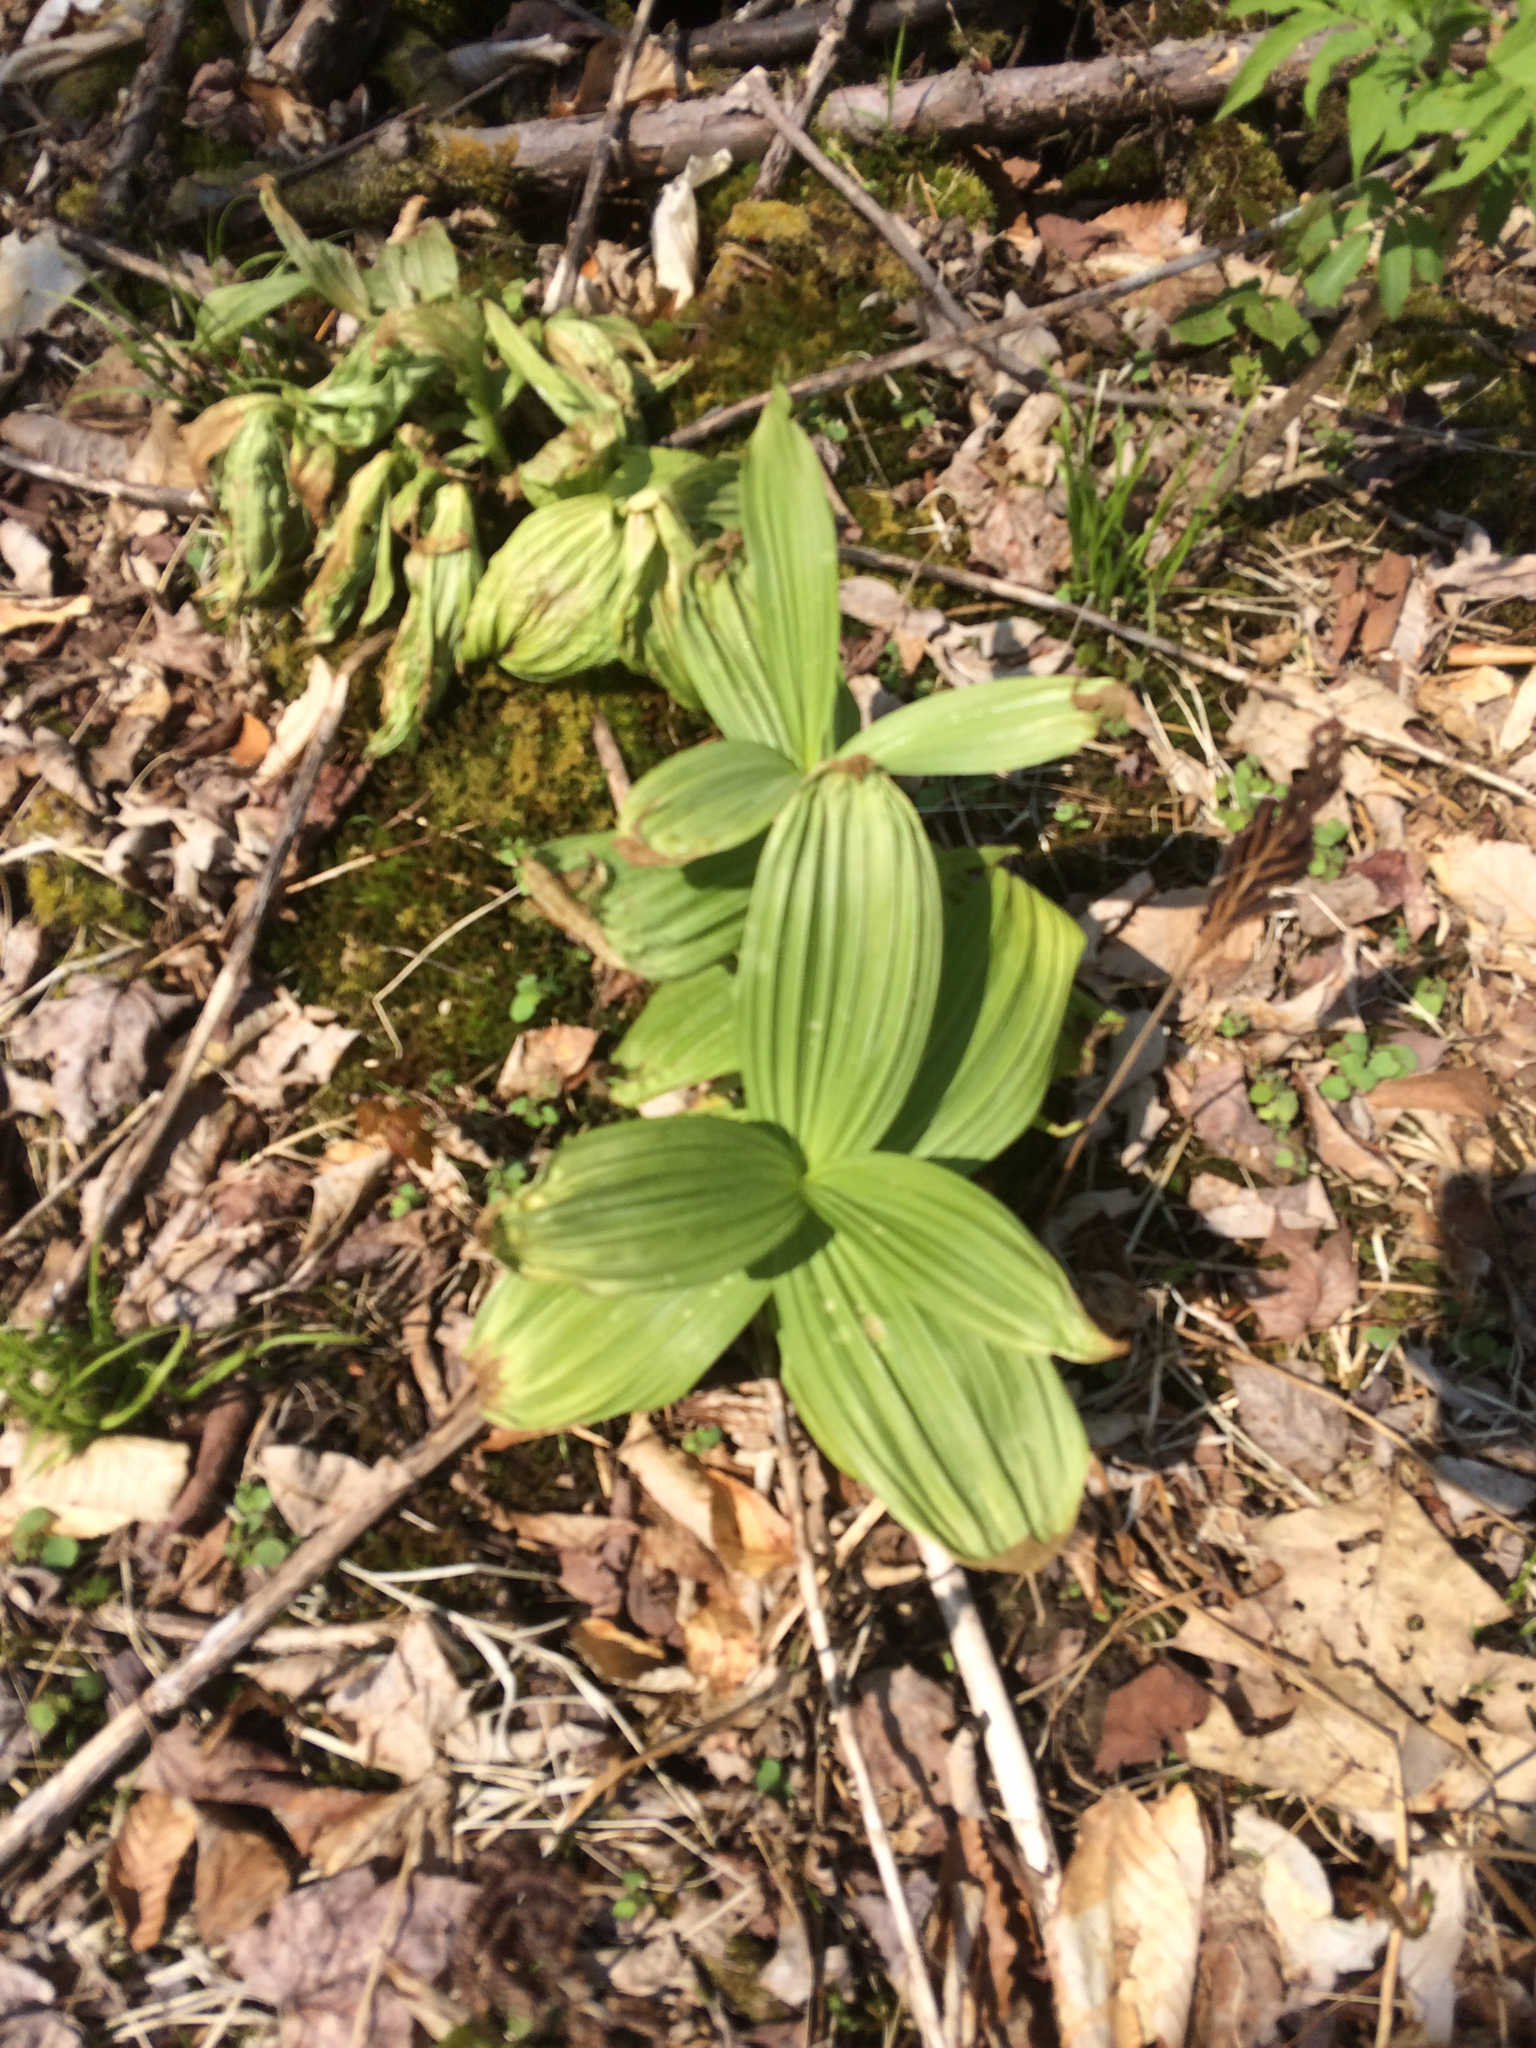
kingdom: Plantae
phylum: Tracheophyta
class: Liliopsida
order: Liliales
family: Melanthiaceae
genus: Veratrum
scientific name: Veratrum viride
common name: American false hellebore
